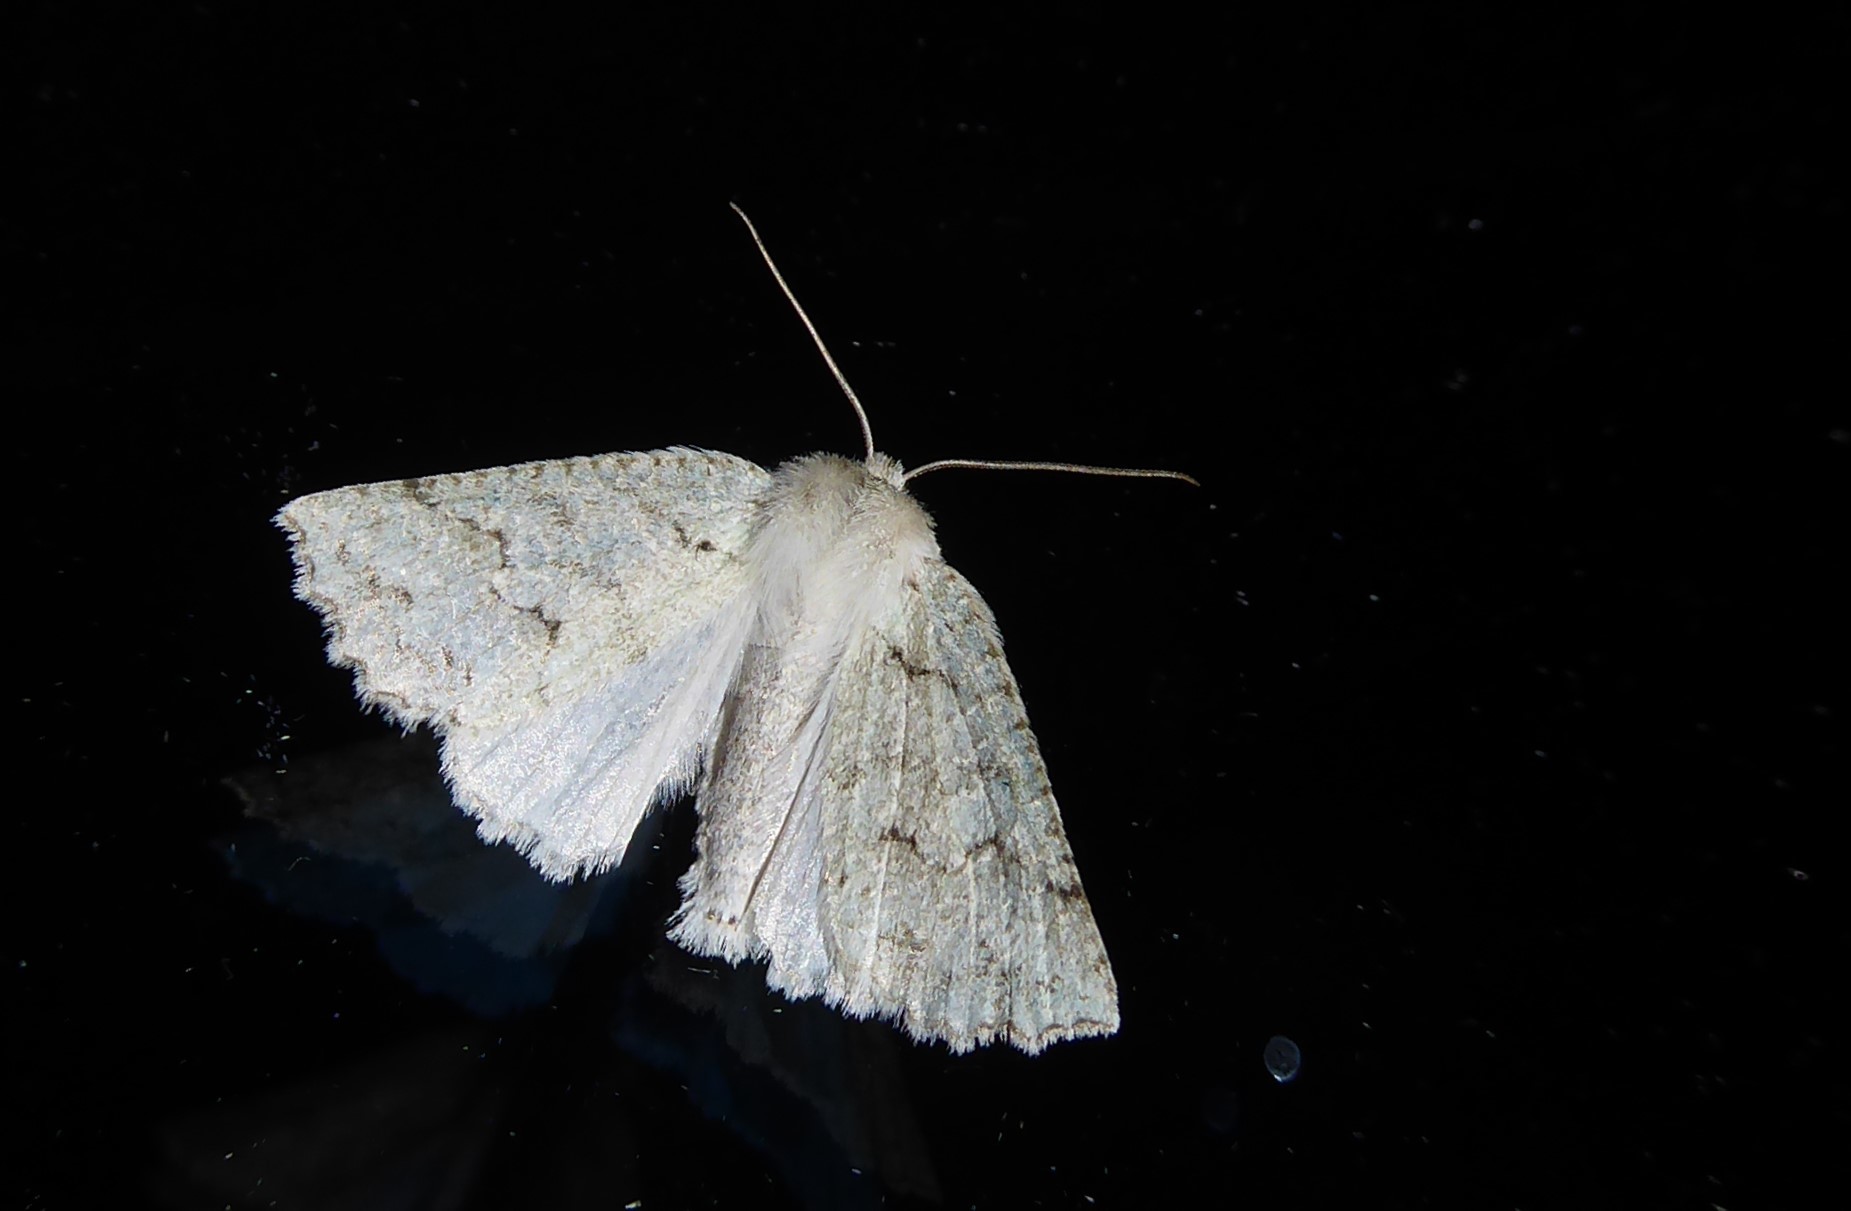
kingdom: Animalia
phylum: Arthropoda
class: Insecta
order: Lepidoptera
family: Geometridae
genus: Declana
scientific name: Declana niveata
